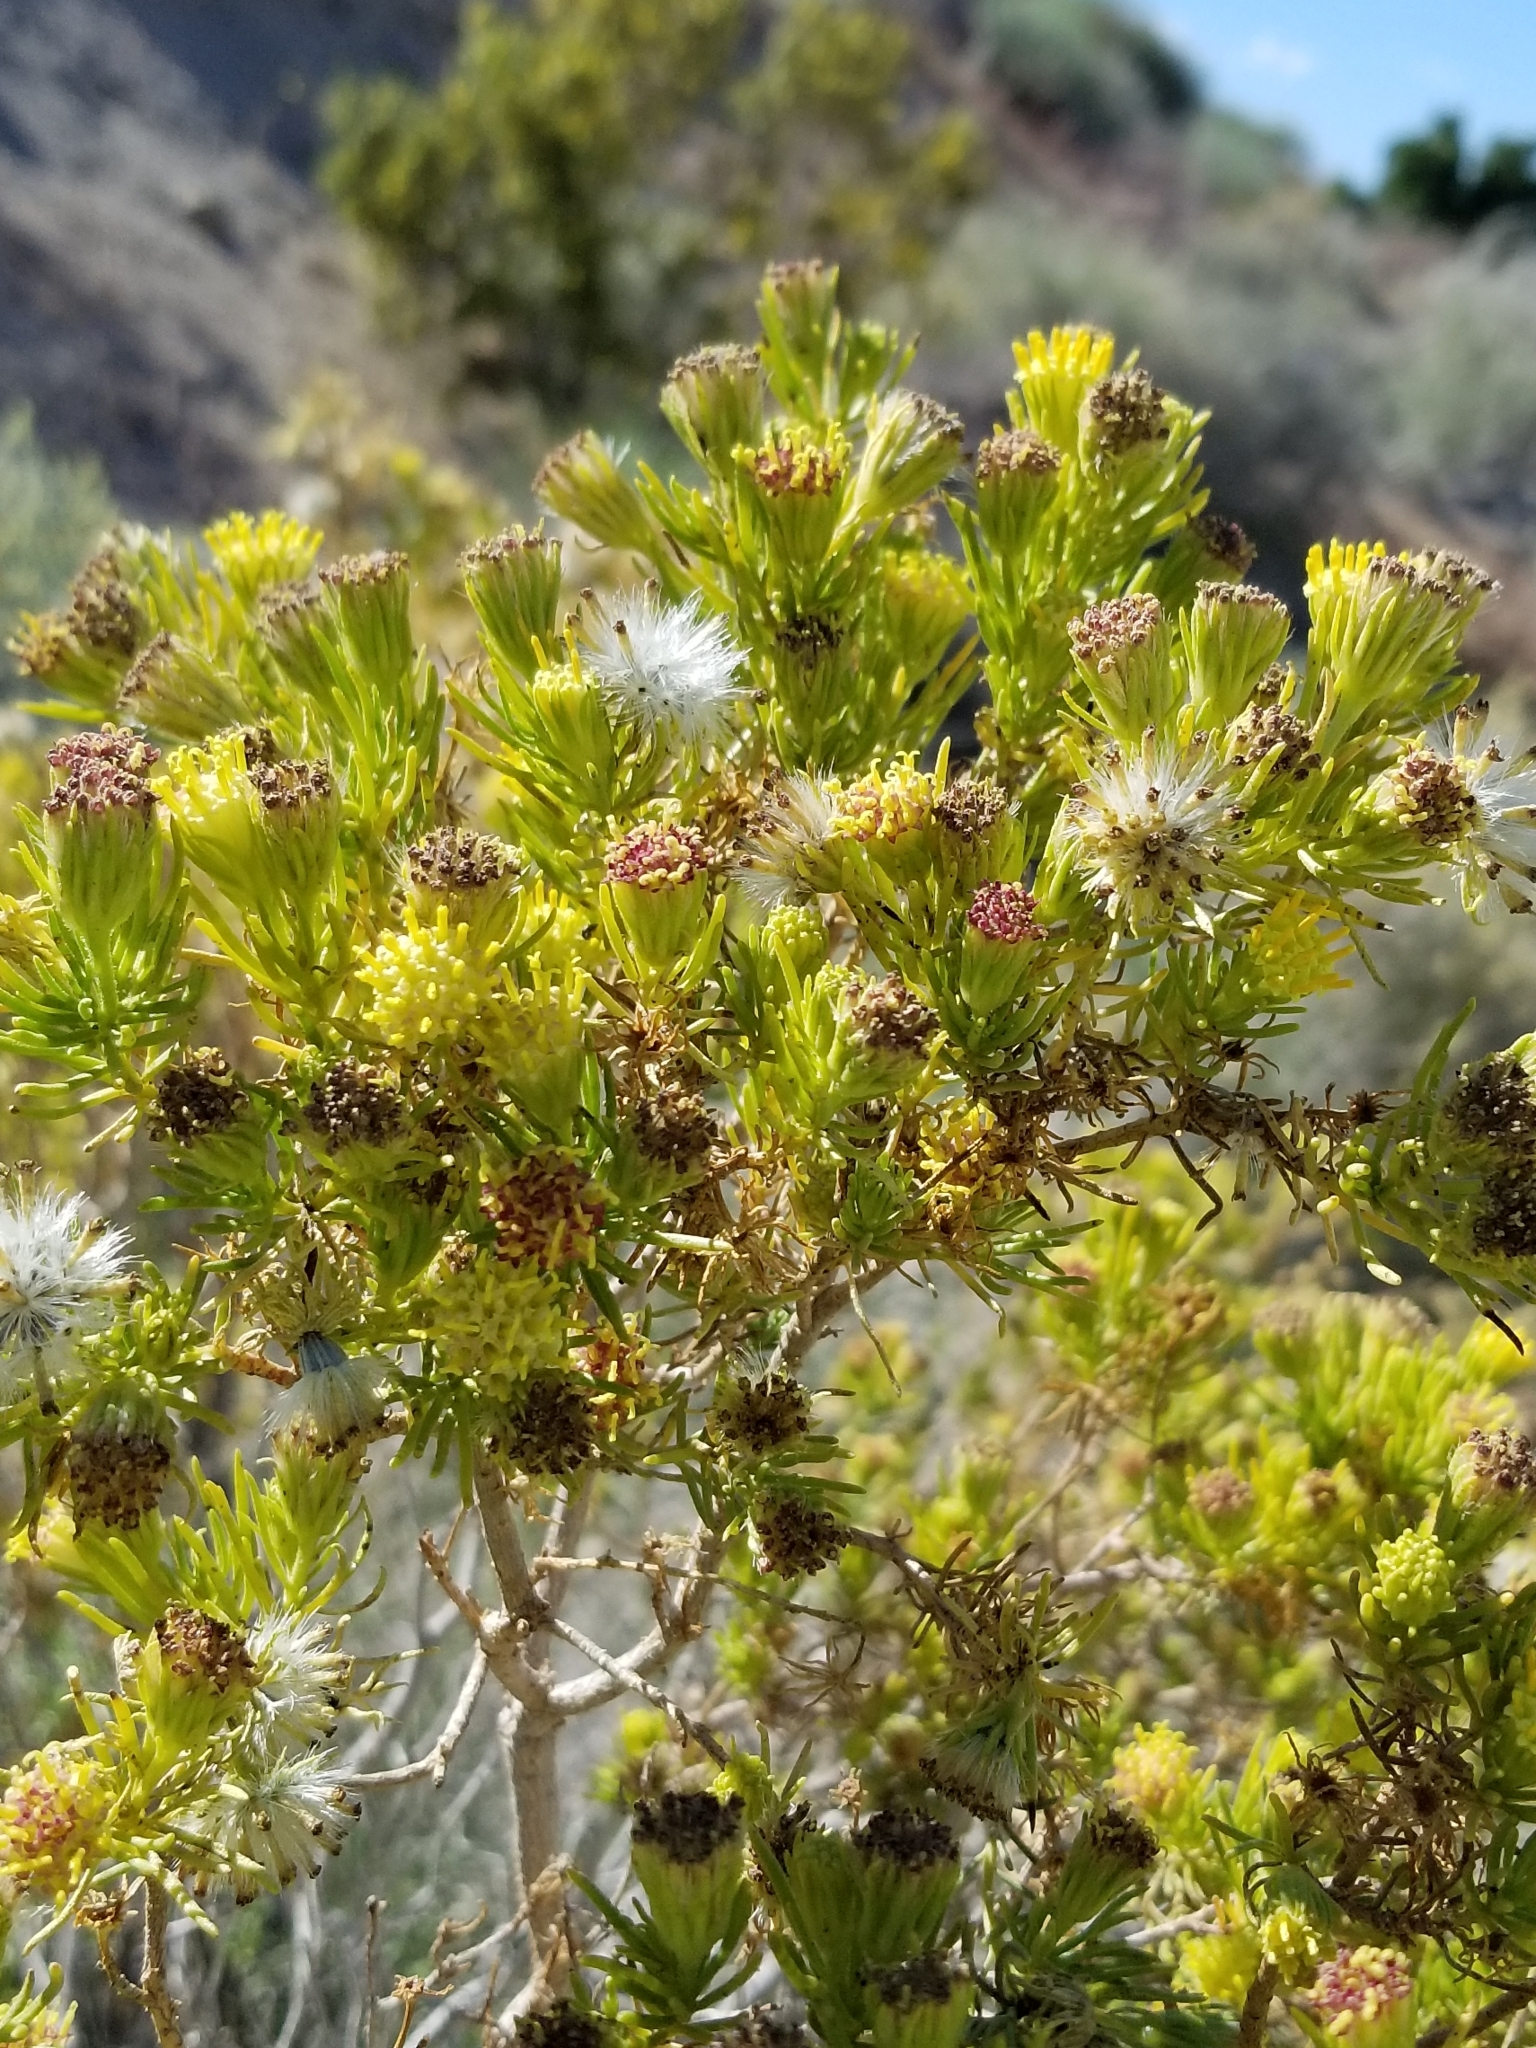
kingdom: Plantae
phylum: Tracheophyta
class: Magnoliopsida
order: Asterales
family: Asteraceae
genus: Peucephyllum
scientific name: Peucephyllum schottii
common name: Pygmy-cedar
